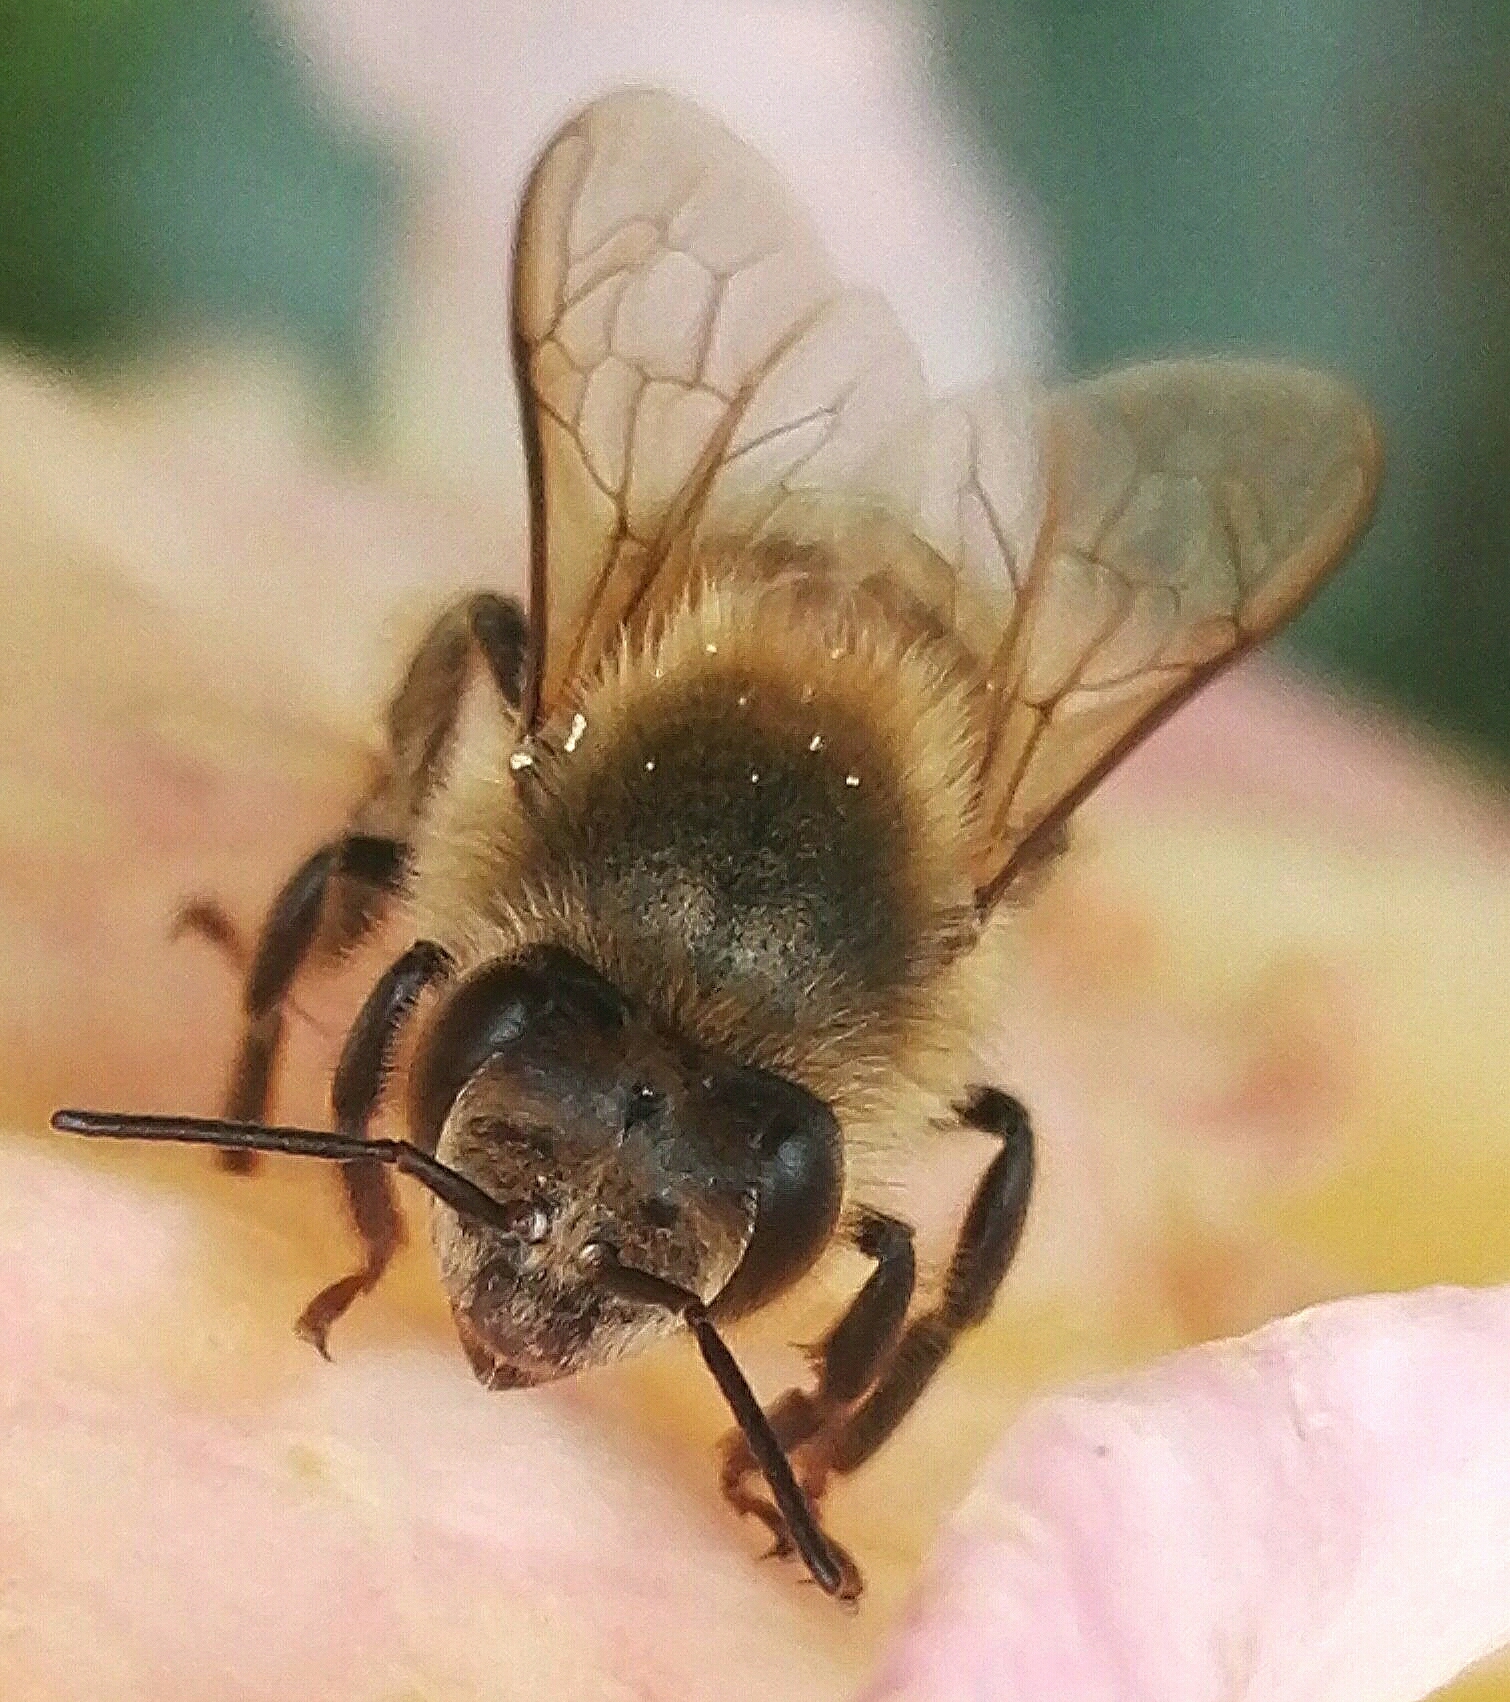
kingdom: Animalia
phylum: Arthropoda
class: Insecta
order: Hymenoptera
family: Apidae
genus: Apis
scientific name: Apis mellifera
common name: Honey bee
